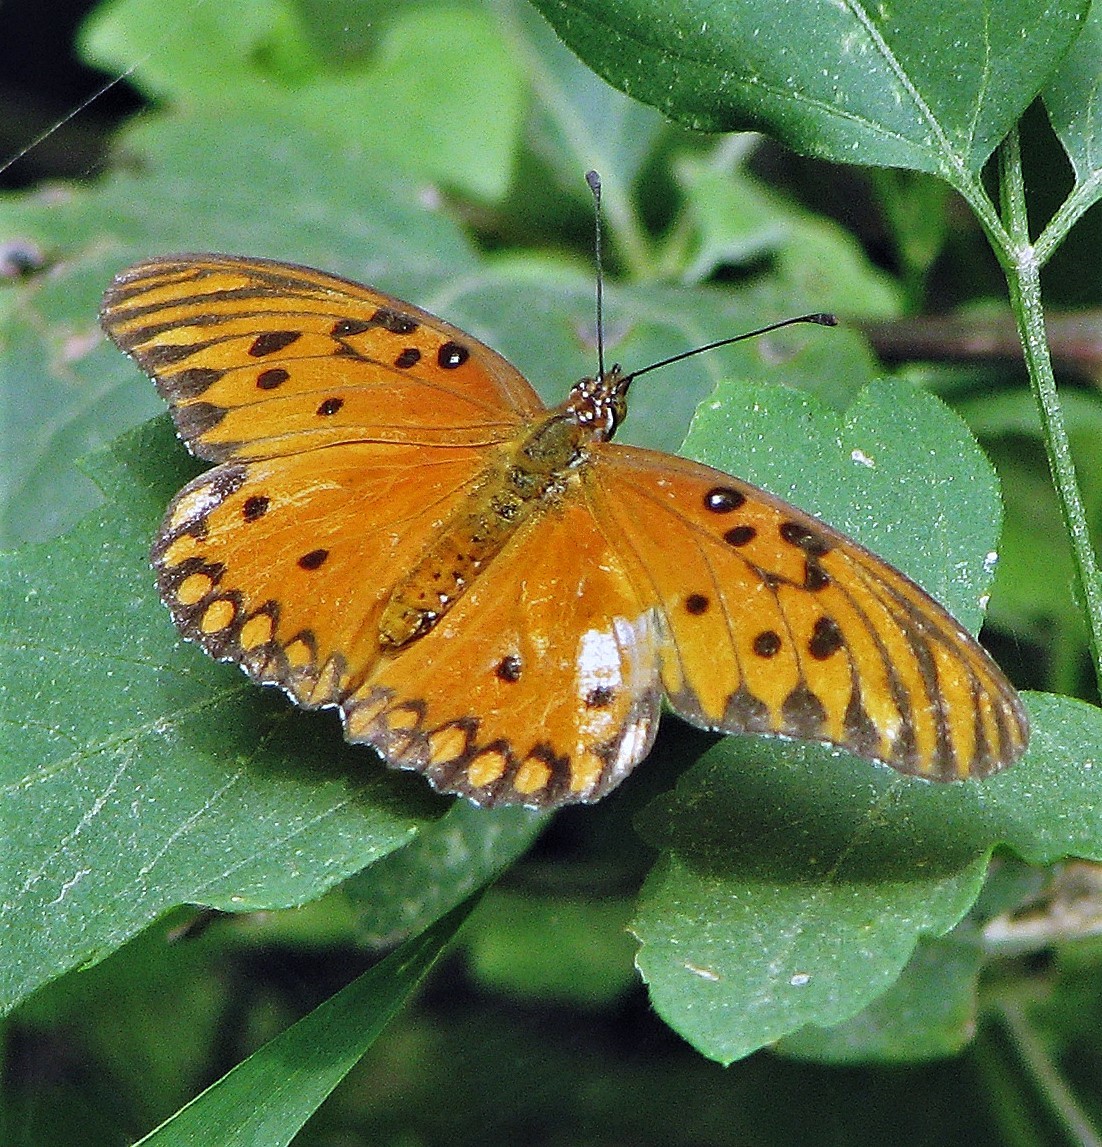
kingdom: Animalia
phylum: Arthropoda
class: Insecta
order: Lepidoptera
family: Nymphalidae
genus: Dione
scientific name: Dione vanillae
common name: Gulf fritillary
